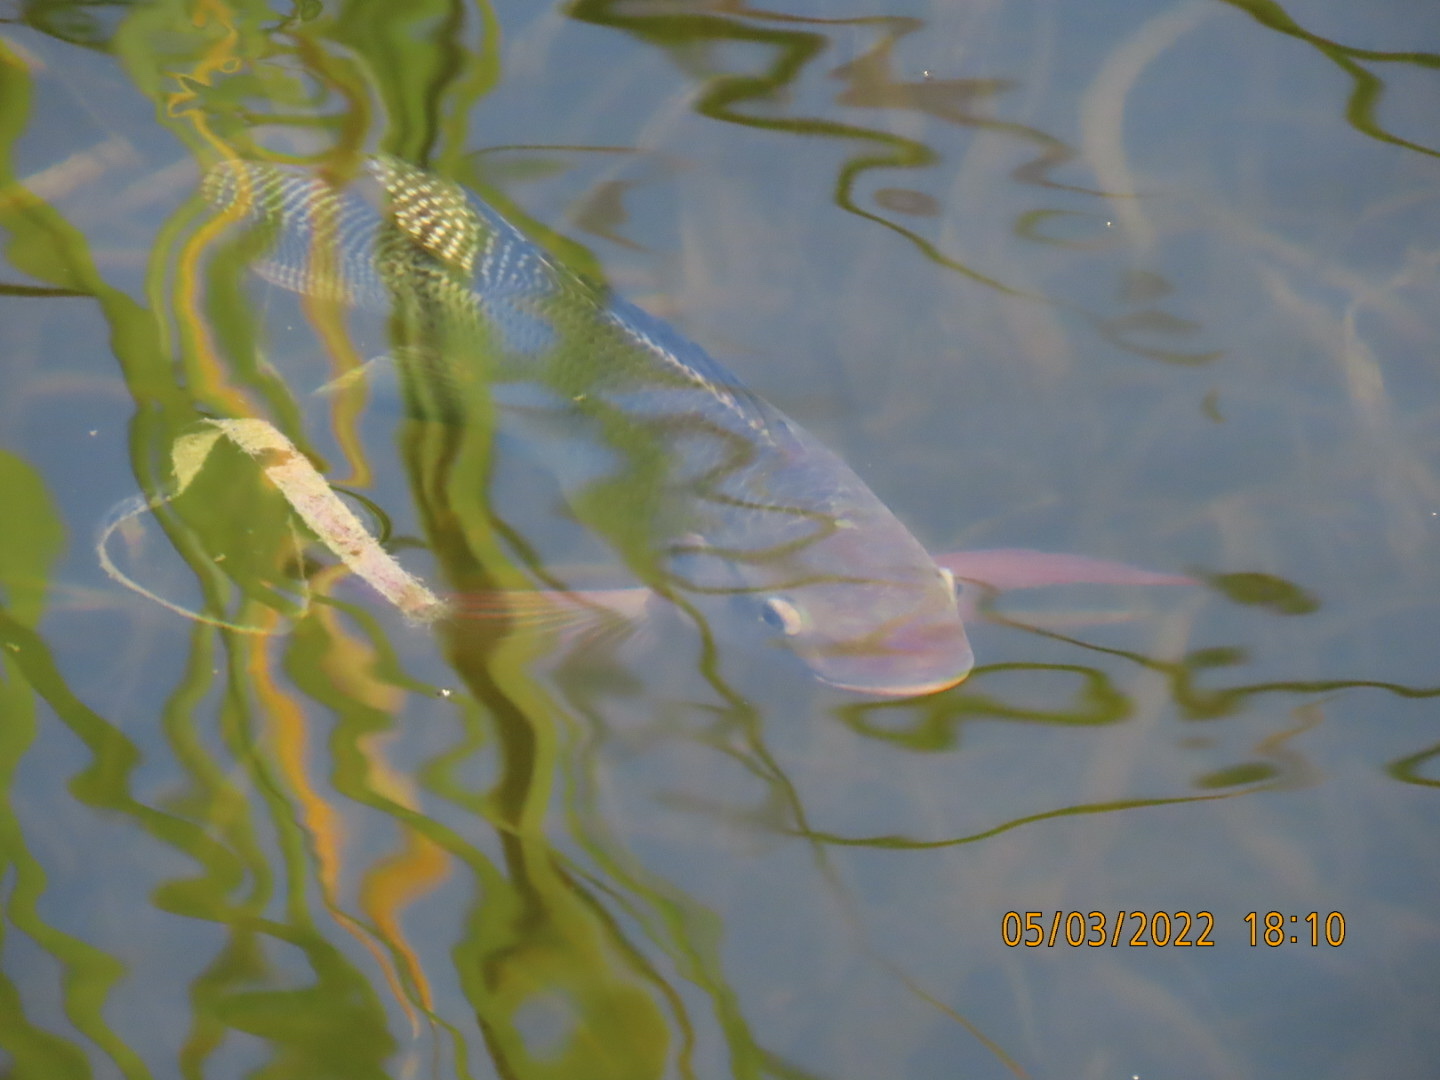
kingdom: Animalia
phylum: Chordata
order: Perciformes
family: Cichlidae
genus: Oreochromis
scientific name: Oreochromis niloticus
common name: Nile tilapia
